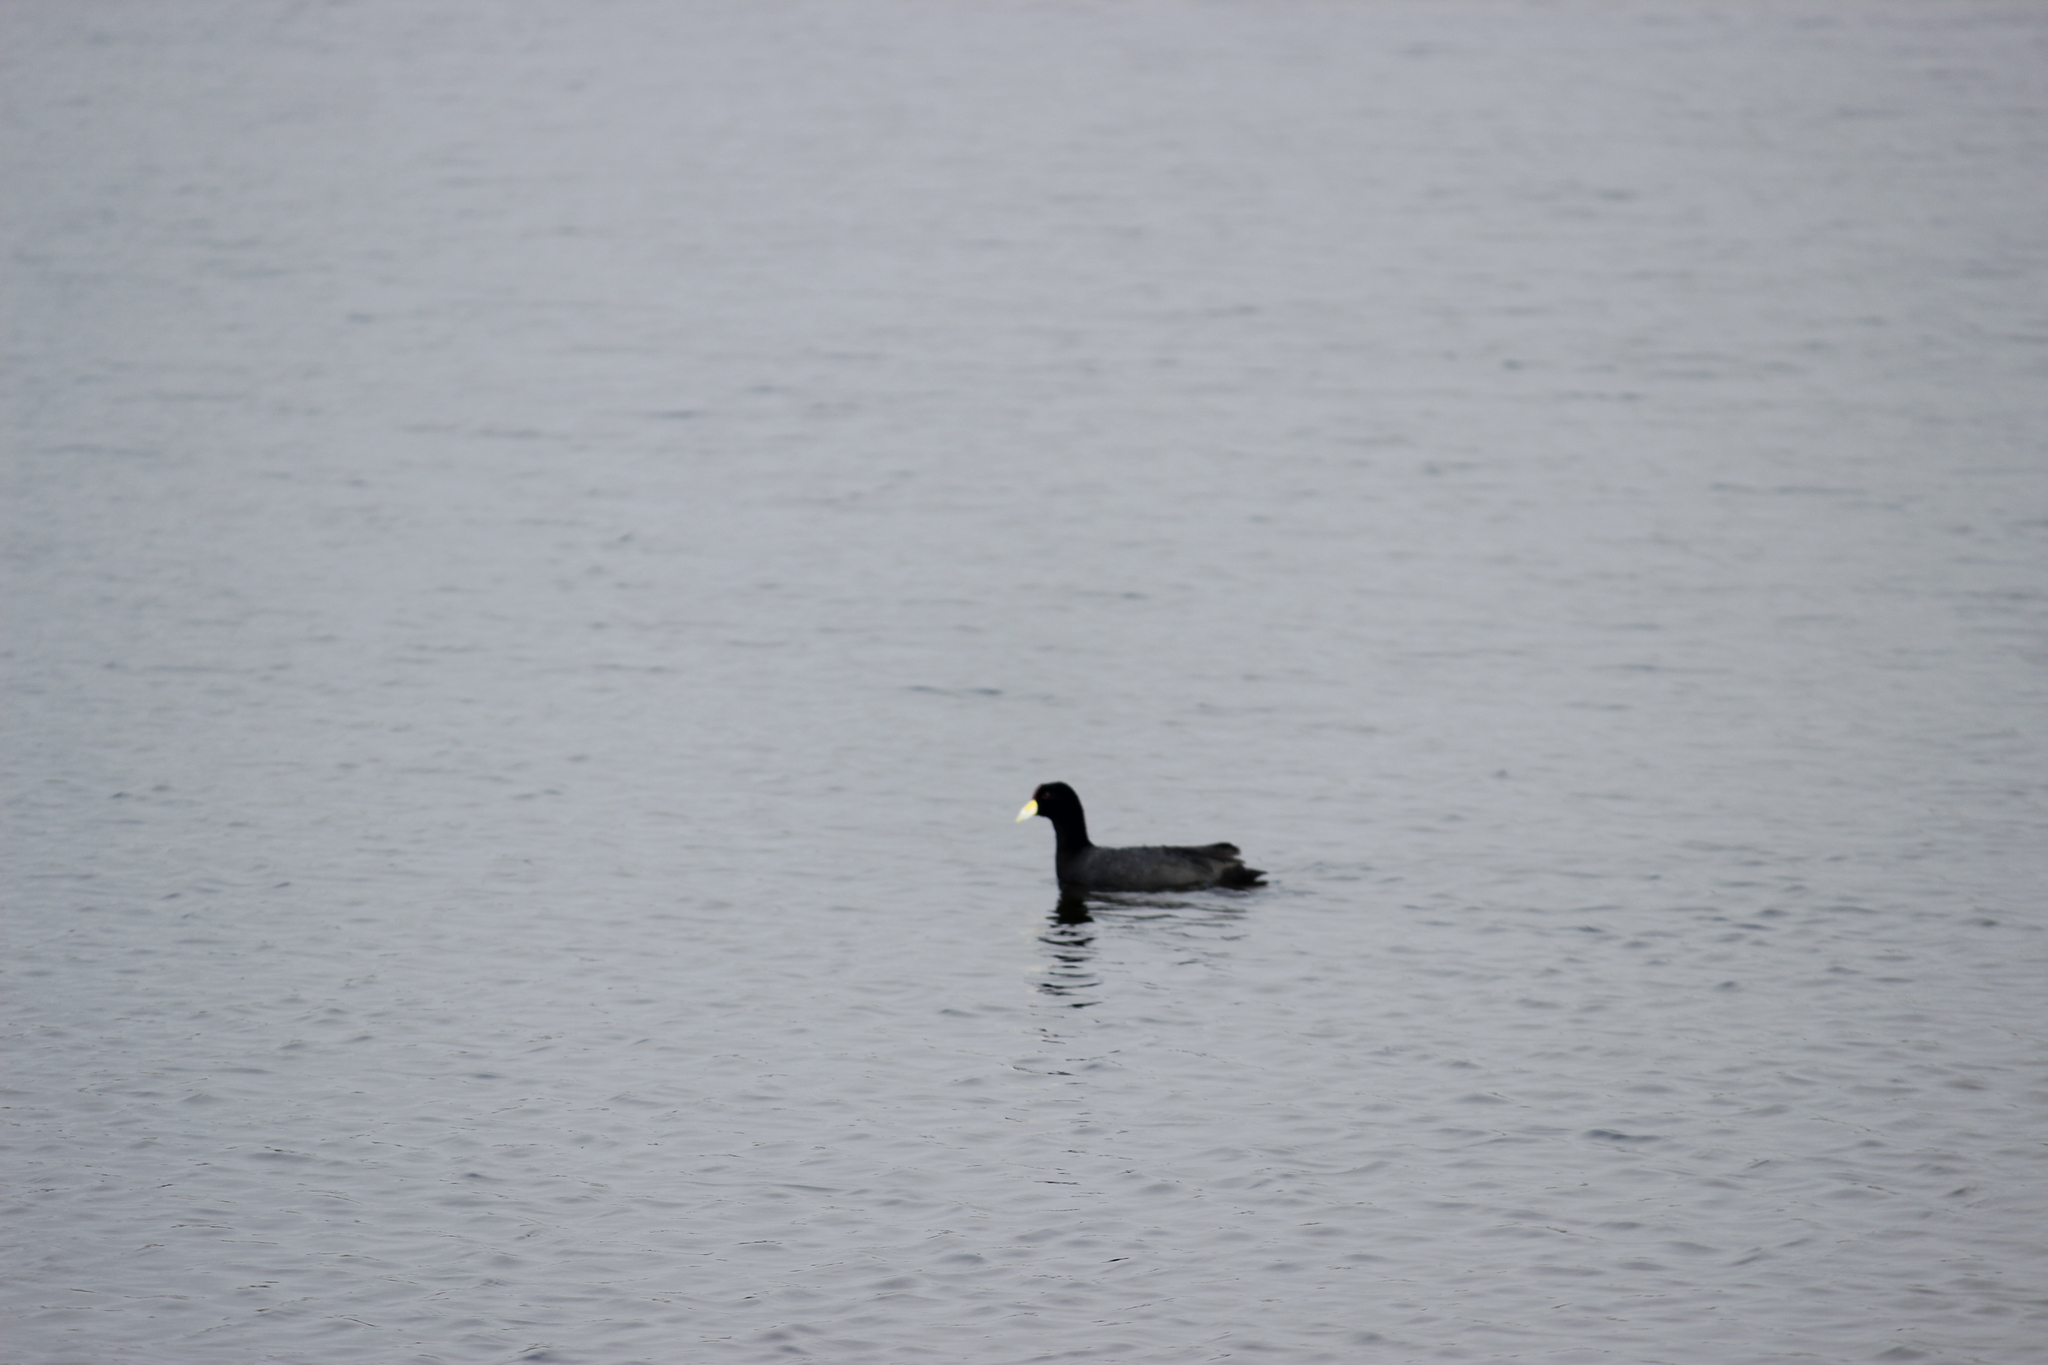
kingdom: Animalia
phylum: Chordata
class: Aves
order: Gruiformes
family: Rallidae
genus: Fulica
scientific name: Fulica ardesiaca
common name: Andean coot
